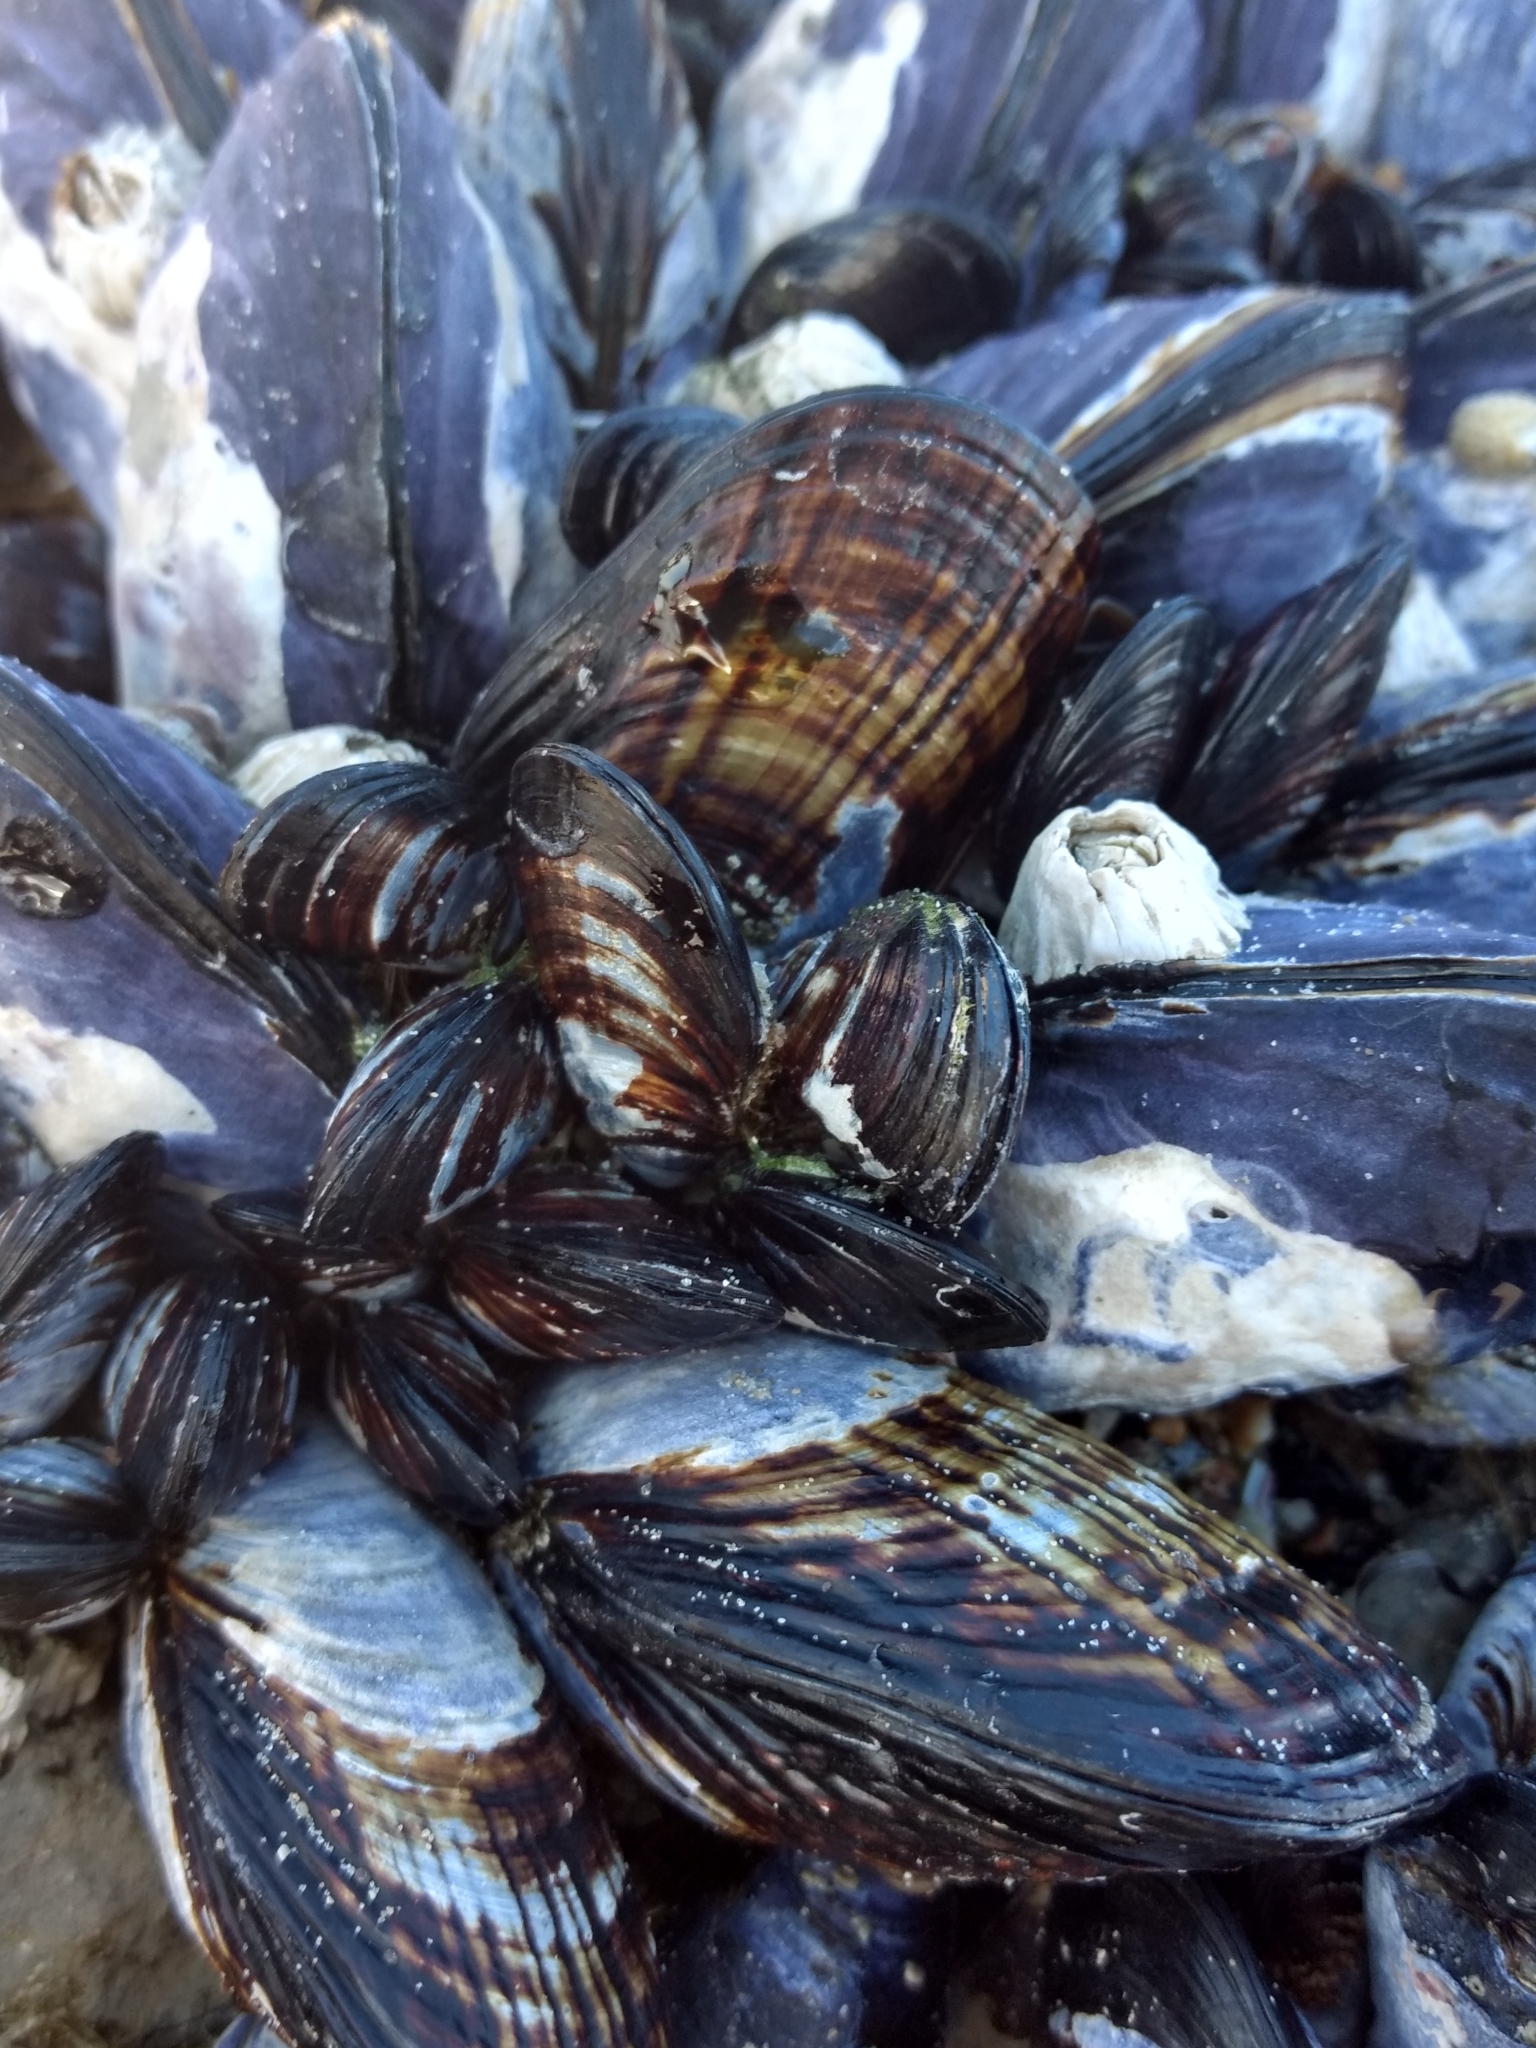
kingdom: Animalia
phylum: Mollusca
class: Bivalvia
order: Mytilida
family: Mytilidae
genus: Mytilus
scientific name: Mytilus californianus
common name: California mussel
